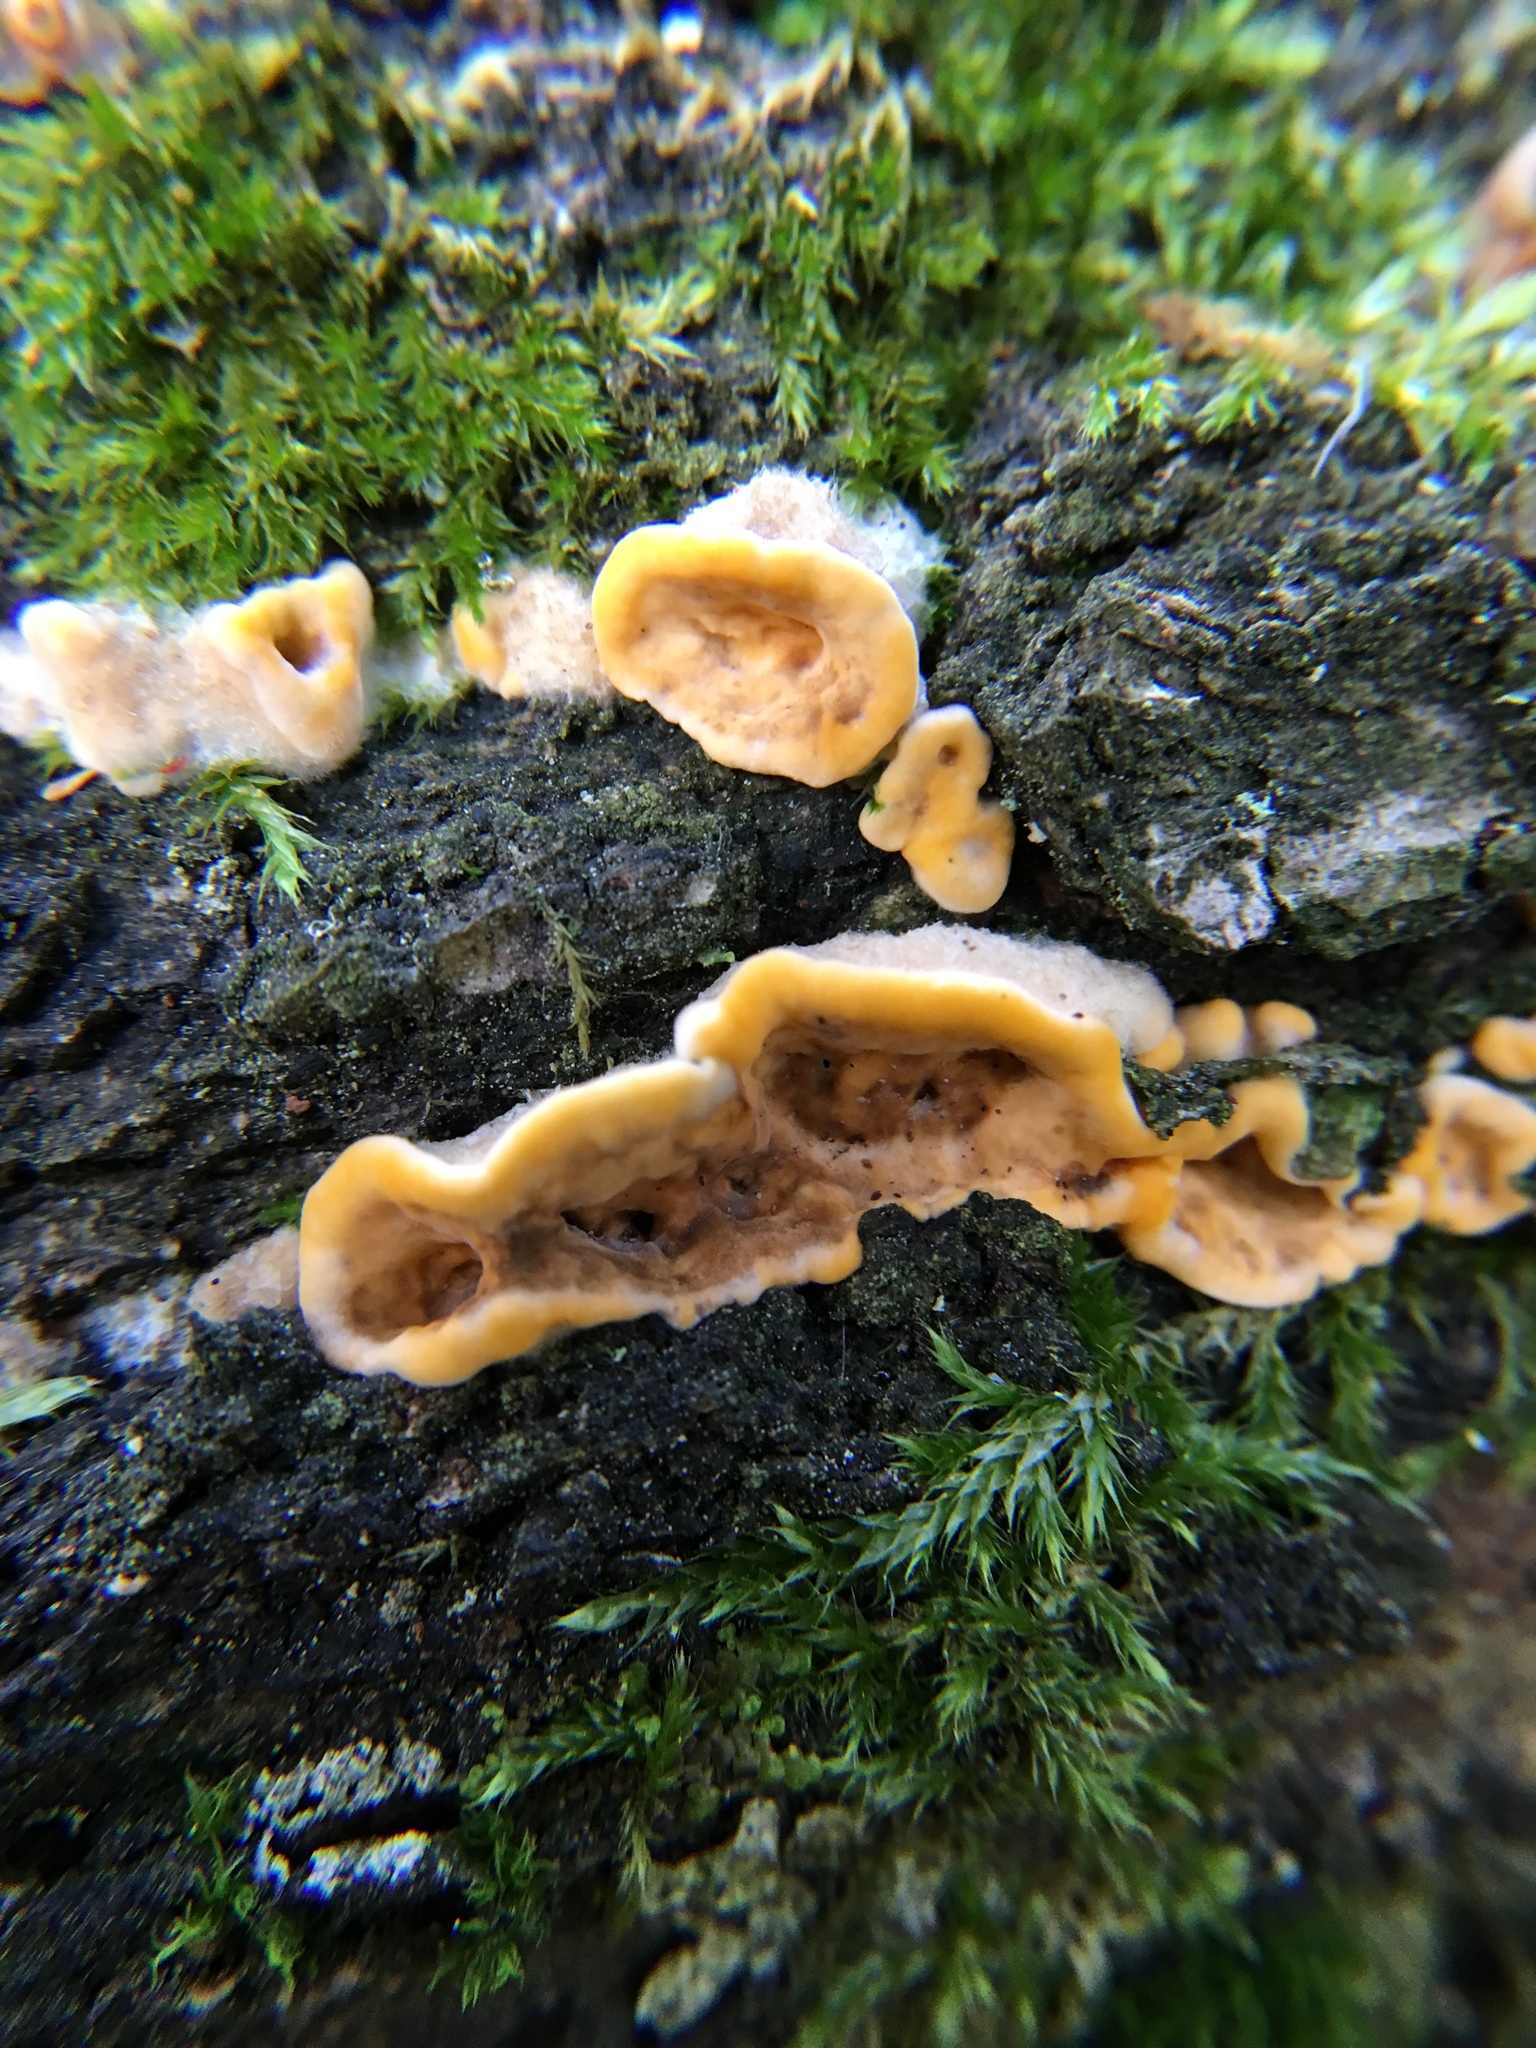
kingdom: Fungi
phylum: Basidiomycota
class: Agaricomycetes
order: Russulales
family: Stereaceae
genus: Stereum
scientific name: Stereum hirsutum
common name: Hairy curtain crust
